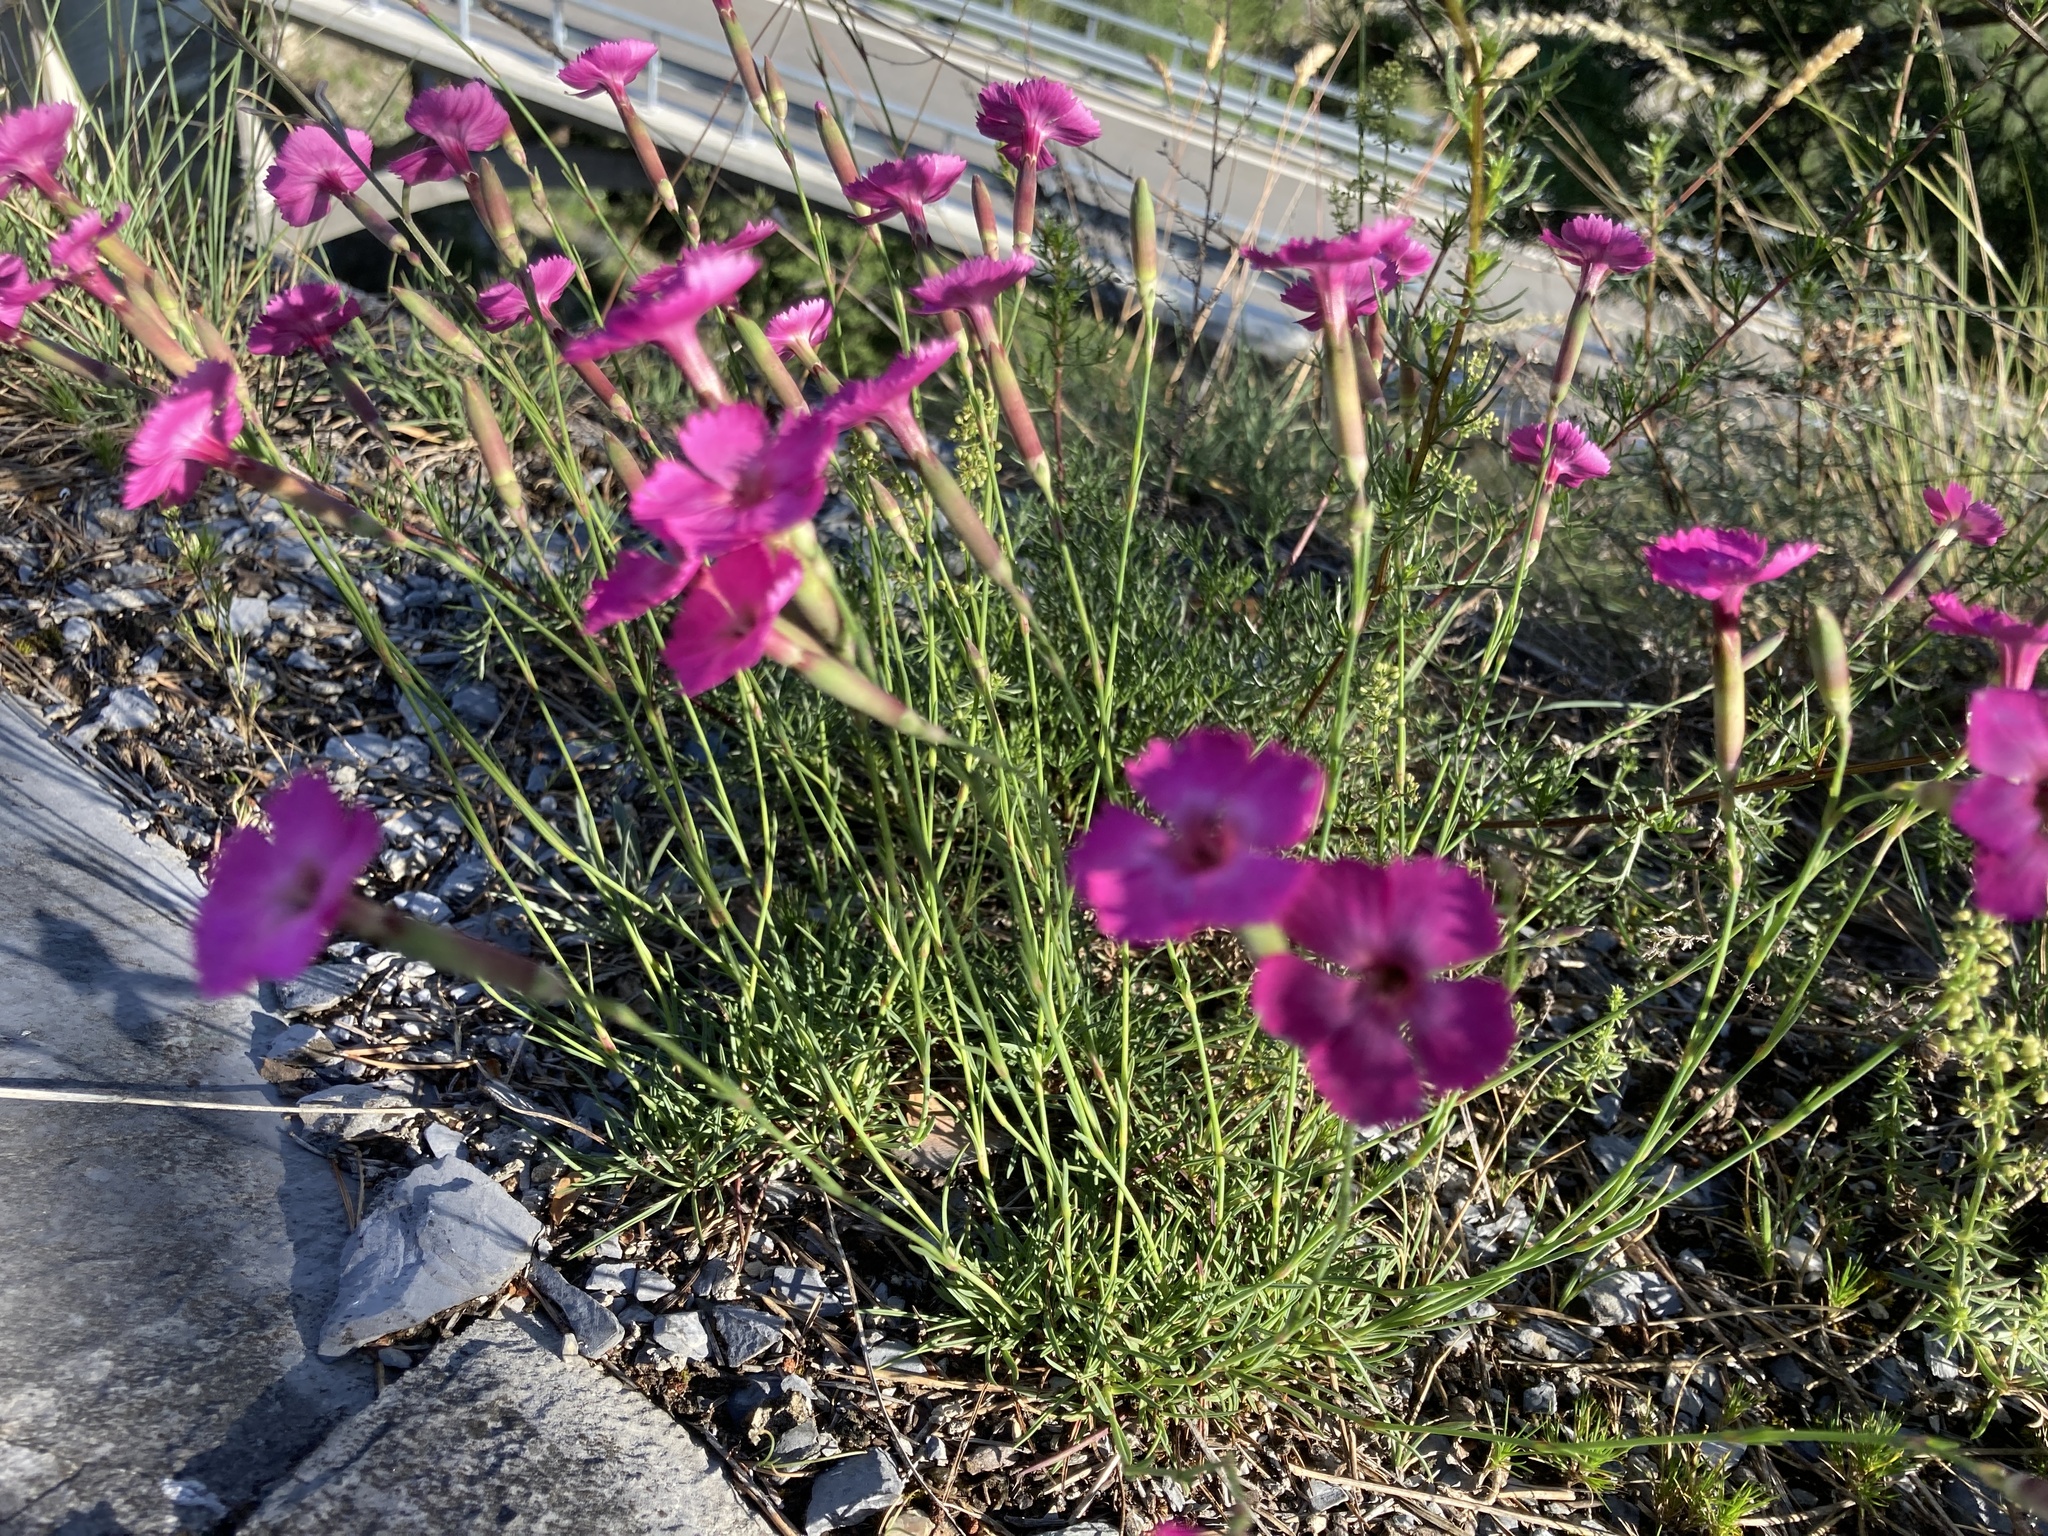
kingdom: Plantae
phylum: Tracheophyta
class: Magnoliopsida
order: Caryophyllales
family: Caryophyllaceae
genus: Dianthus
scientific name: Dianthus sylvestris
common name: Wood pink
